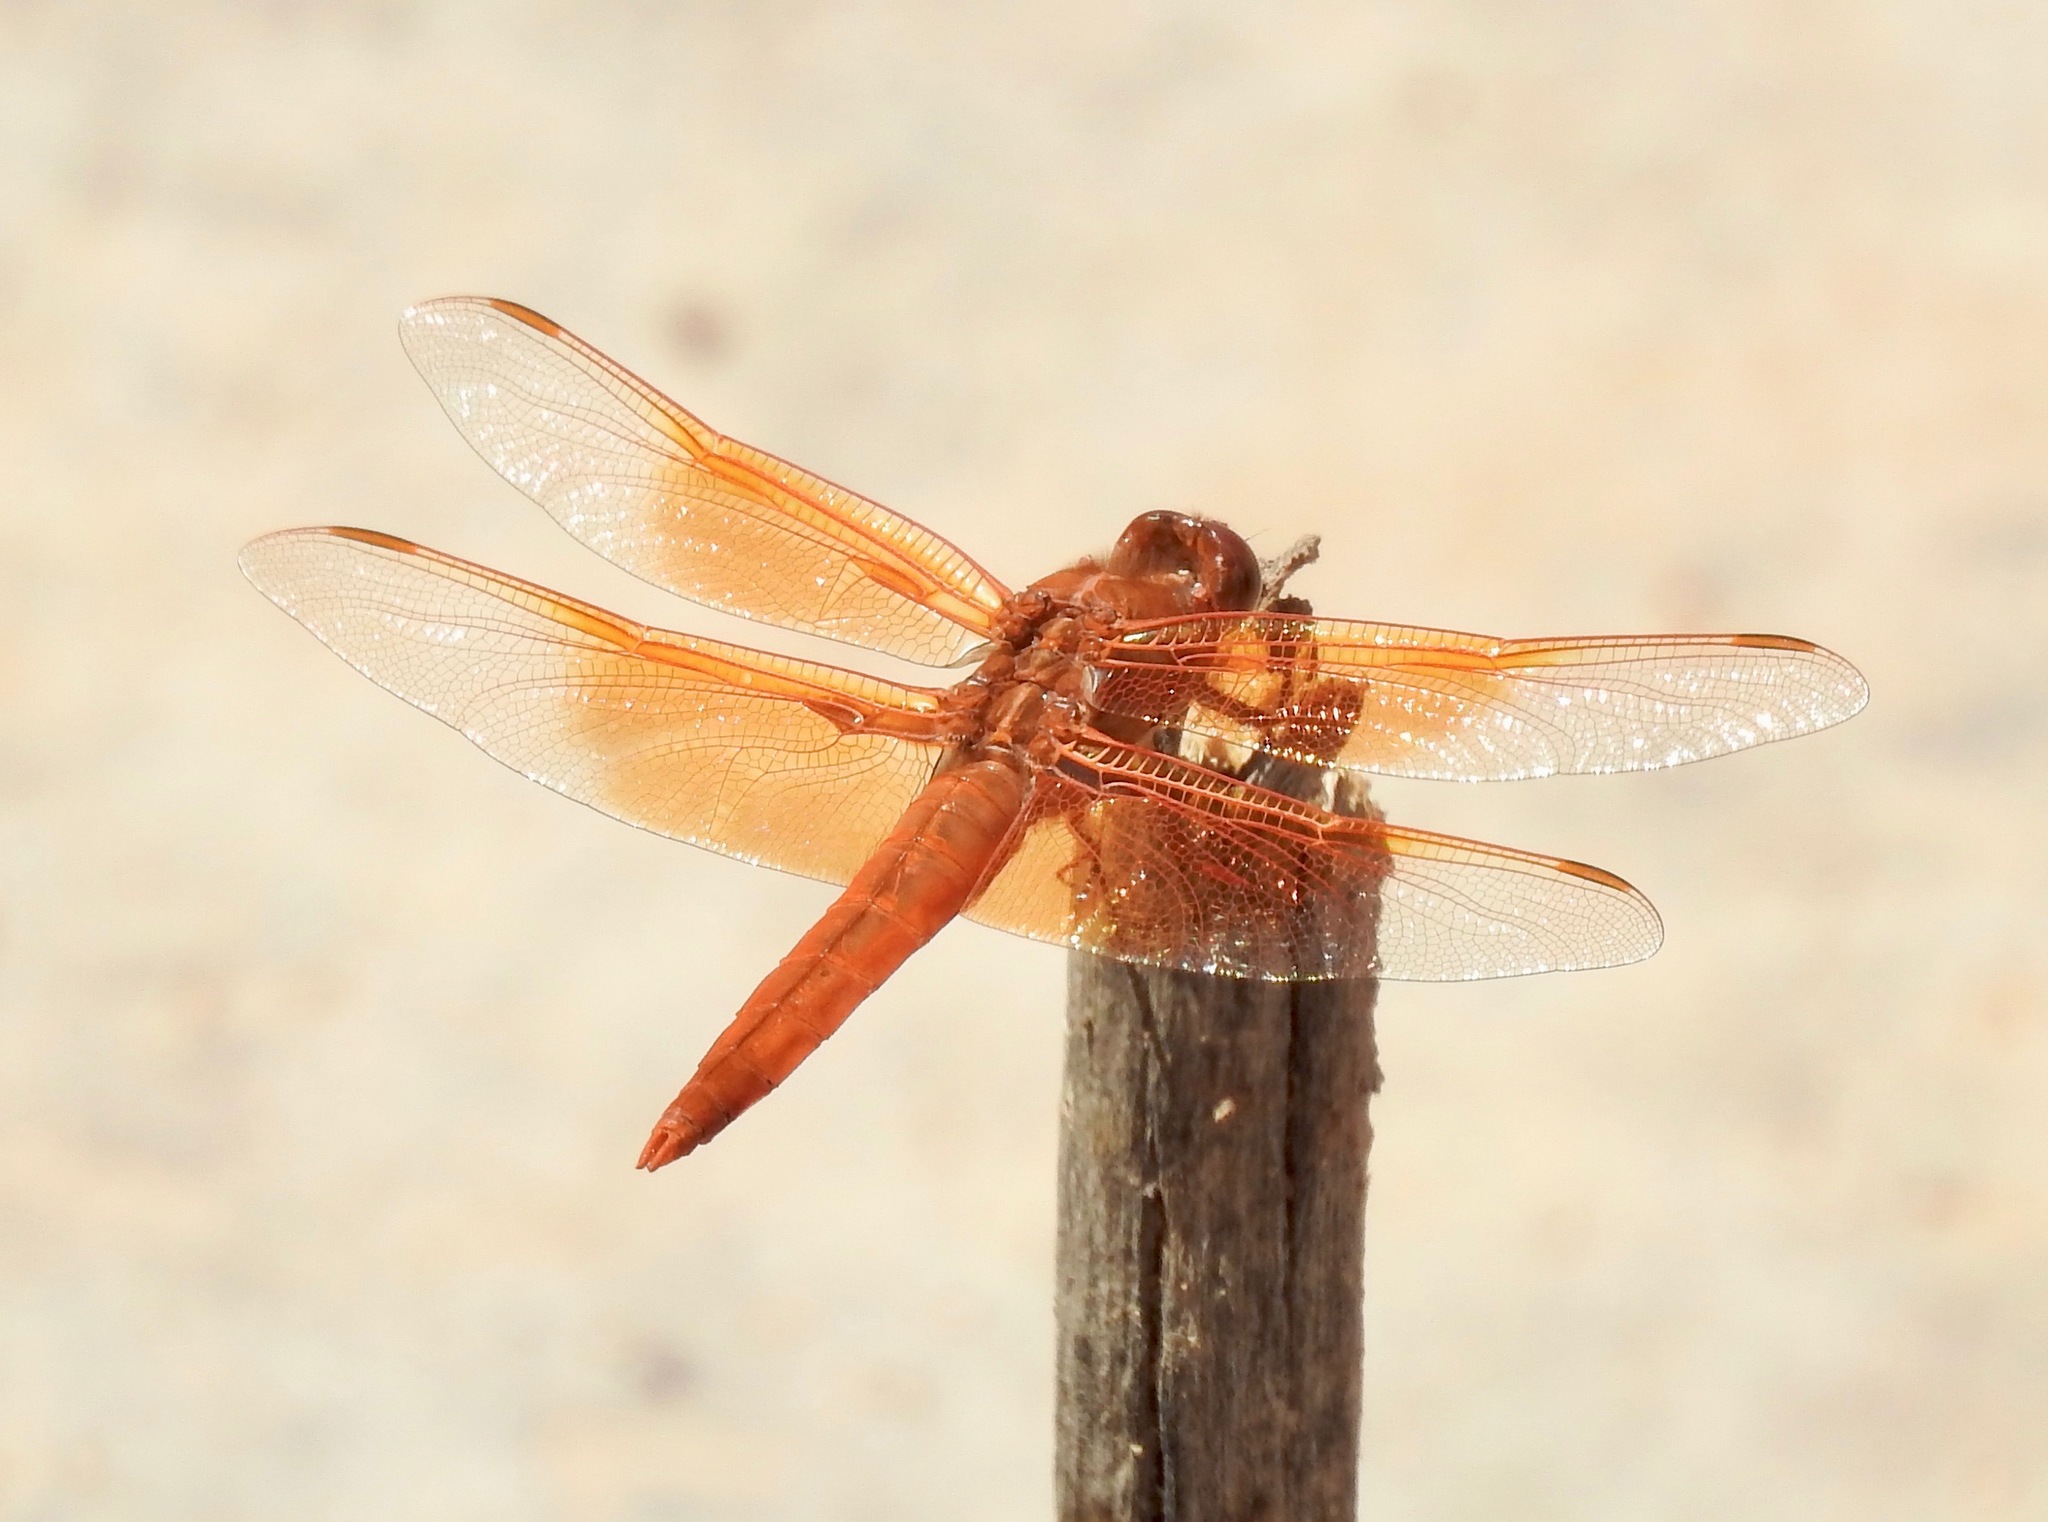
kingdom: Animalia
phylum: Arthropoda
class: Insecta
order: Odonata
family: Libellulidae
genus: Libellula
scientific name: Libellula saturata
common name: Flame skimmer
